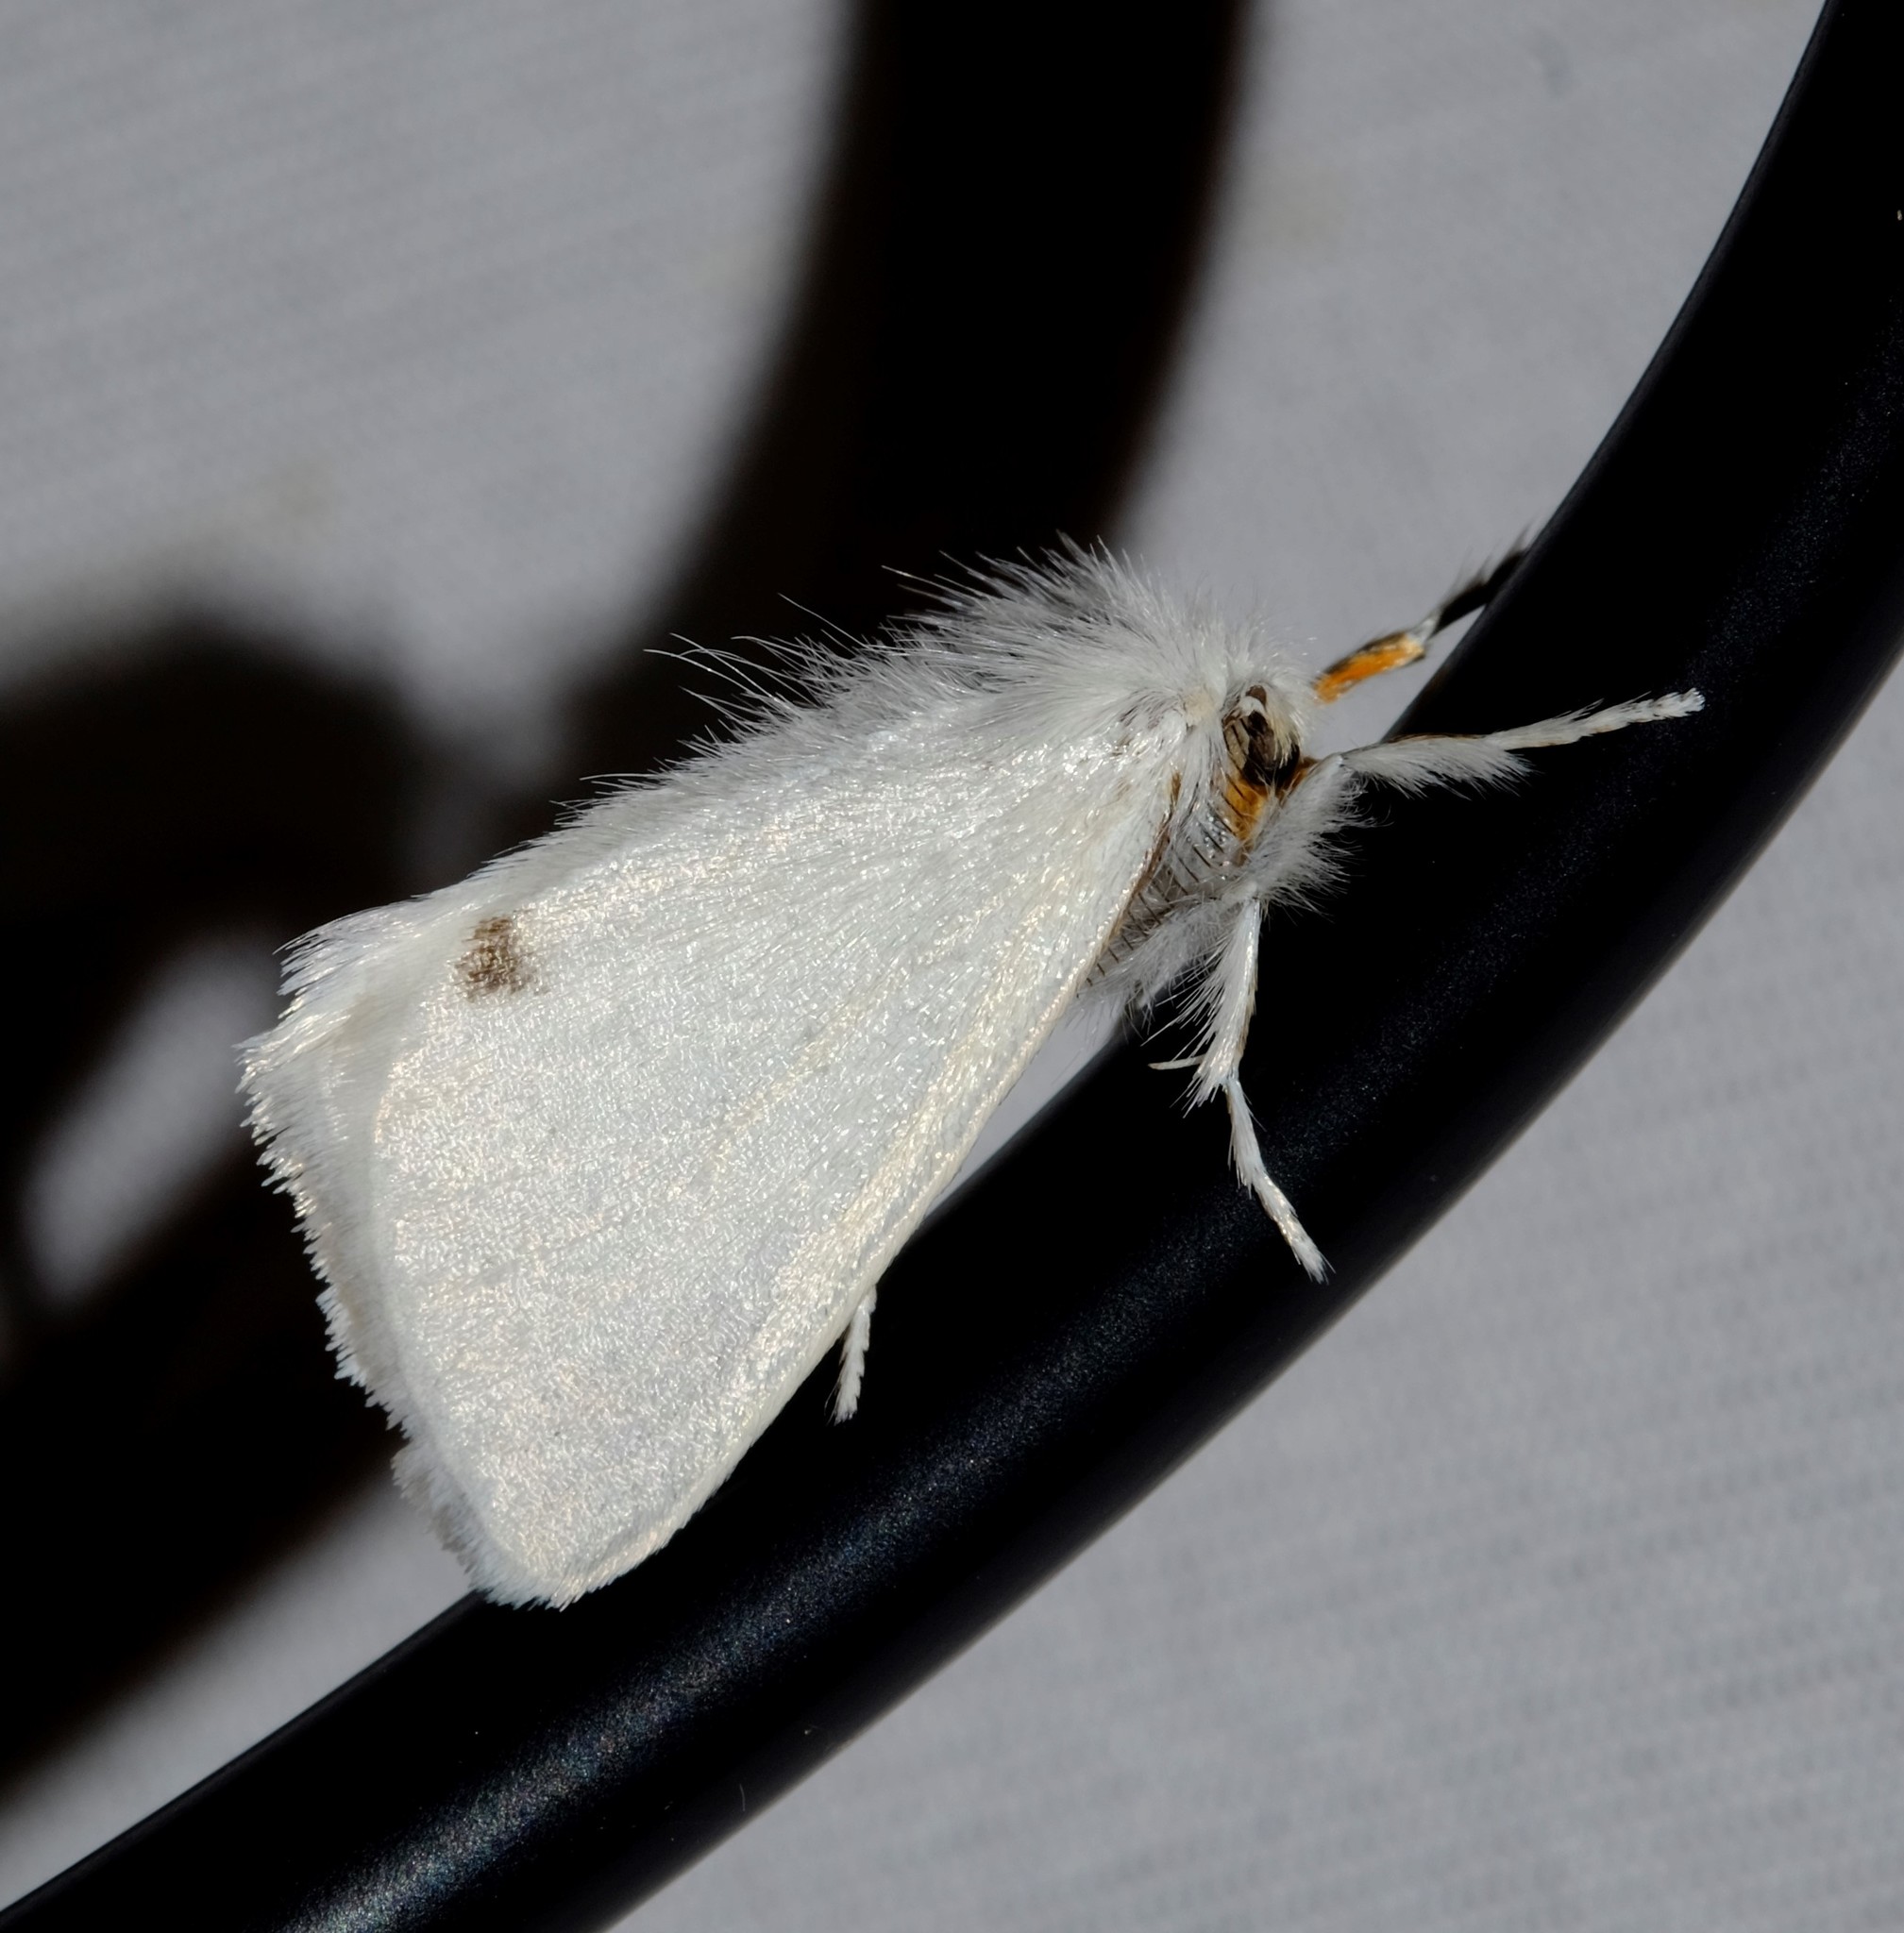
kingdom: Animalia
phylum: Arthropoda
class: Insecta
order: Lepidoptera
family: Erebidae
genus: Acyphas
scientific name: Acyphas semiochrea
